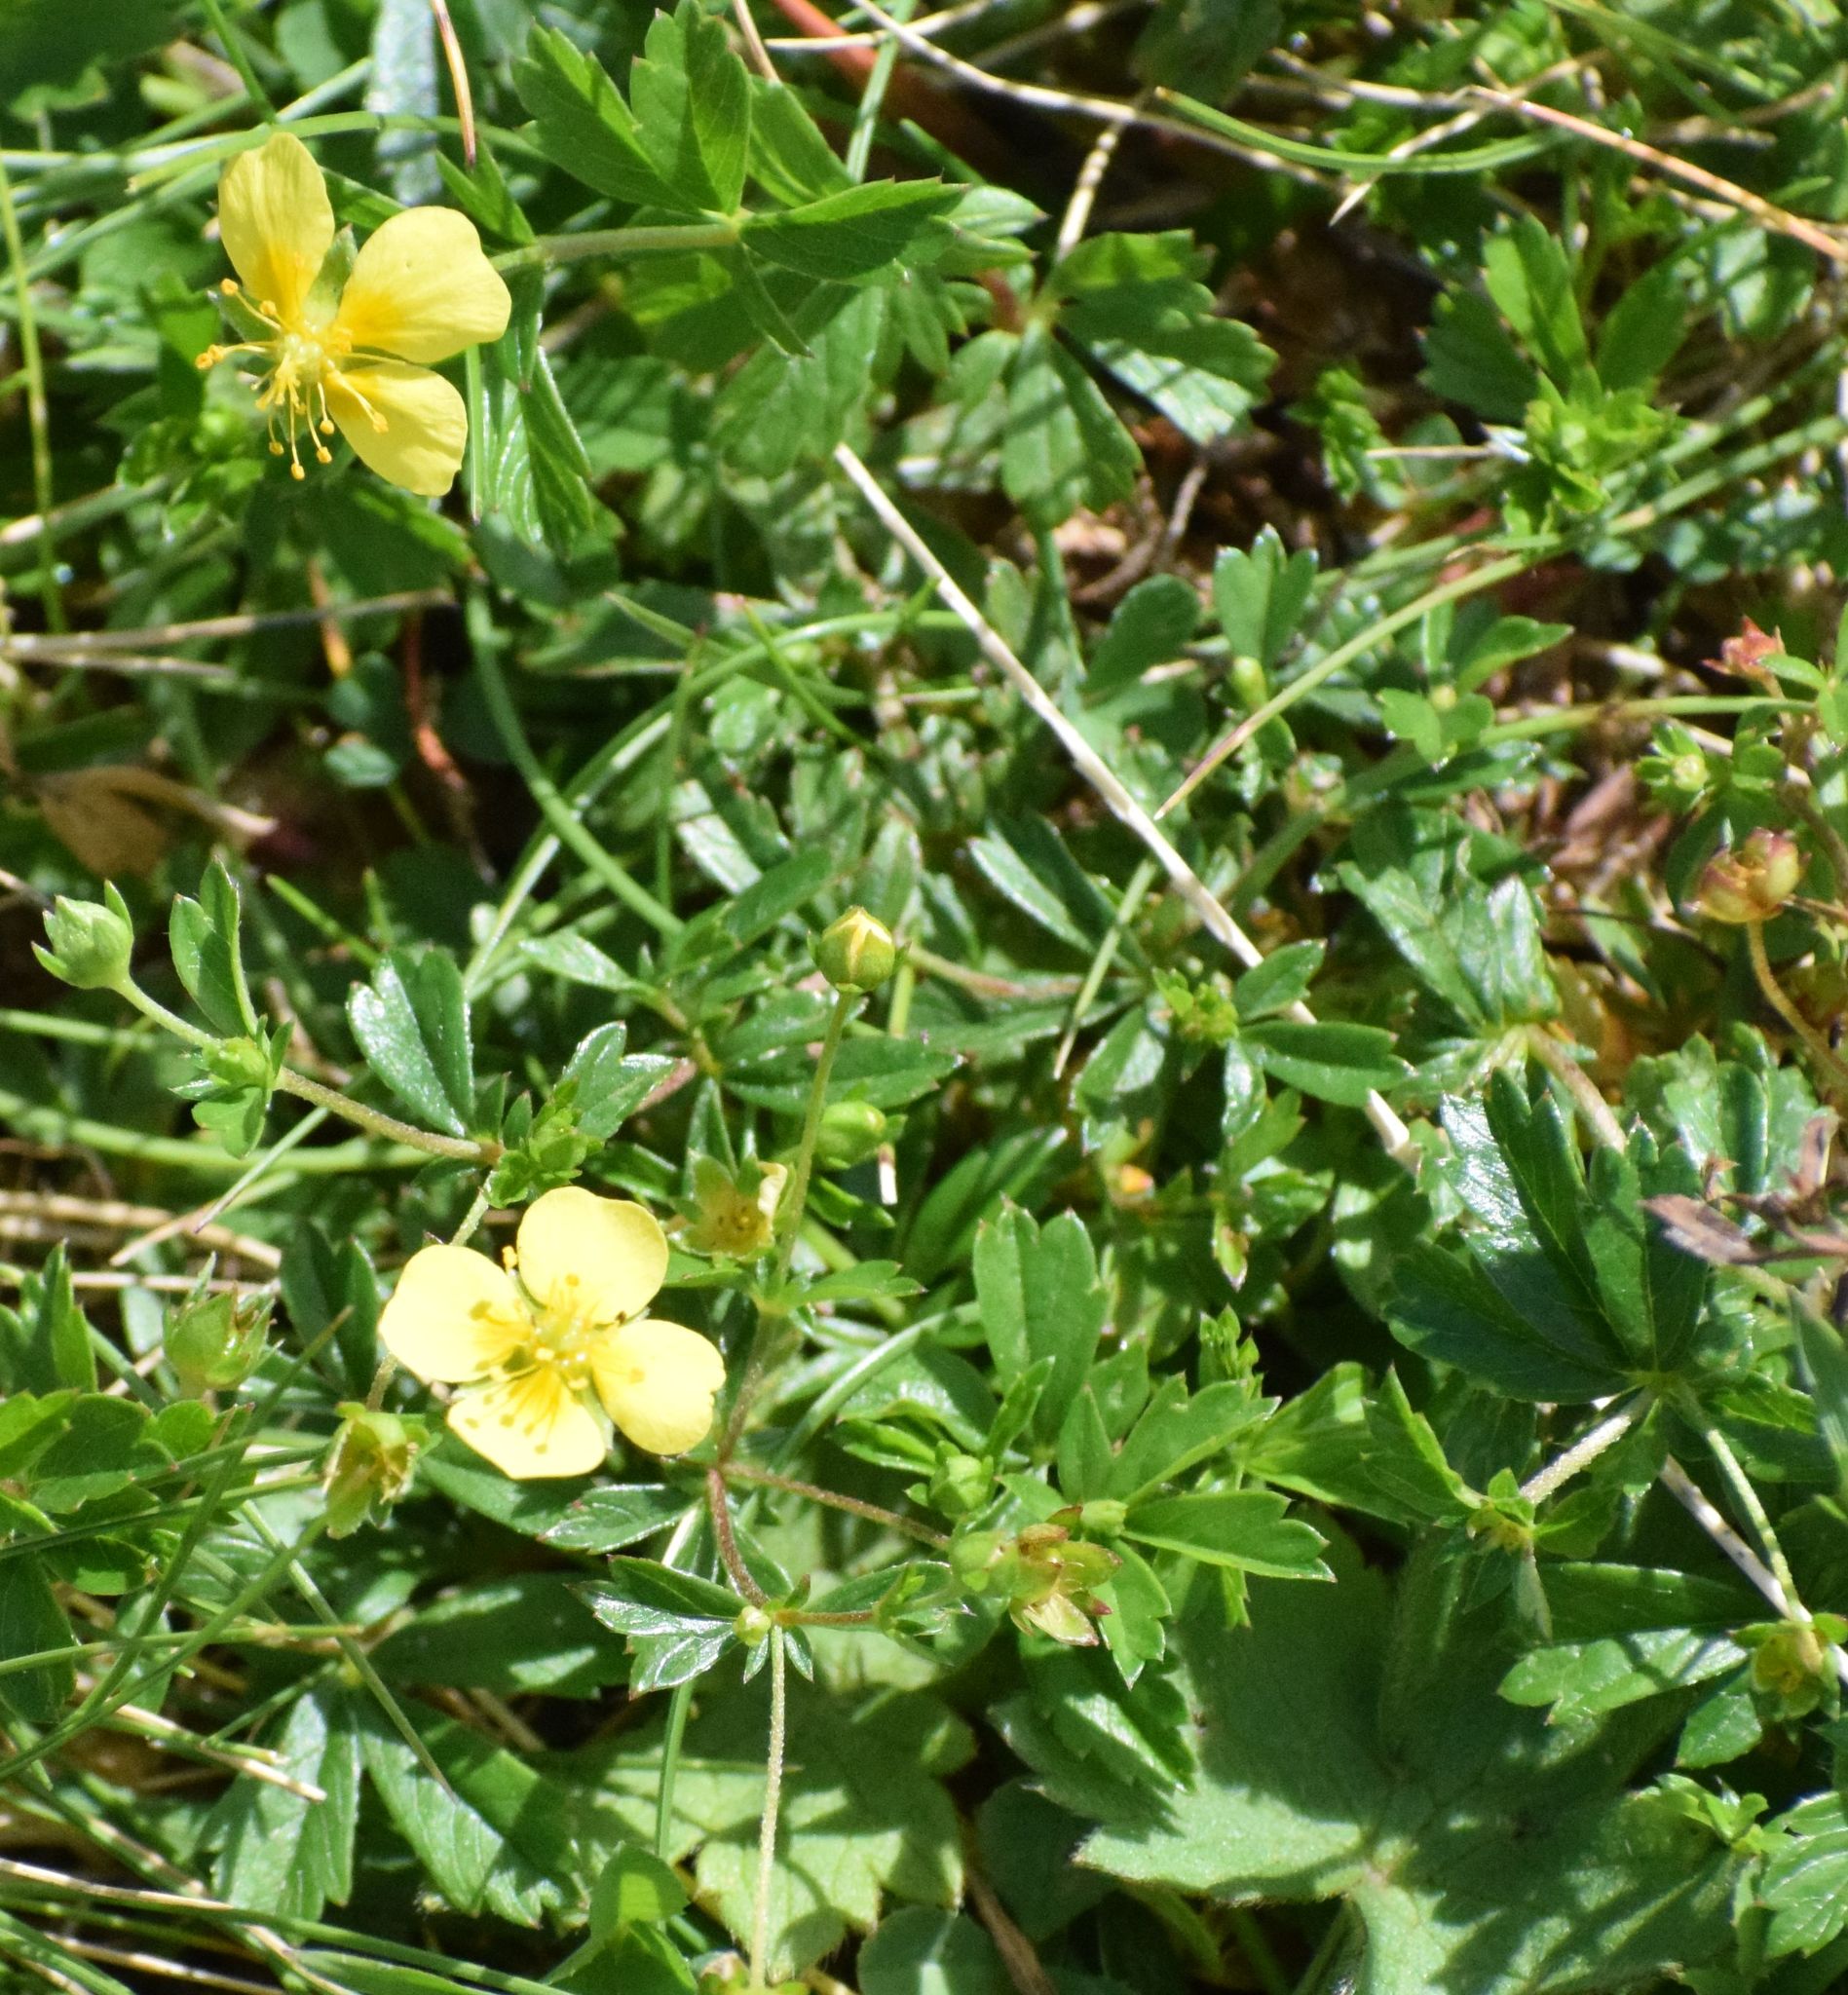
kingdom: Plantae
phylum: Tracheophyta
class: Magnoliopsida
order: Rosales
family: Rosaceae
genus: Potentilla
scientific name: Potentilla erecta
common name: Tormentil
